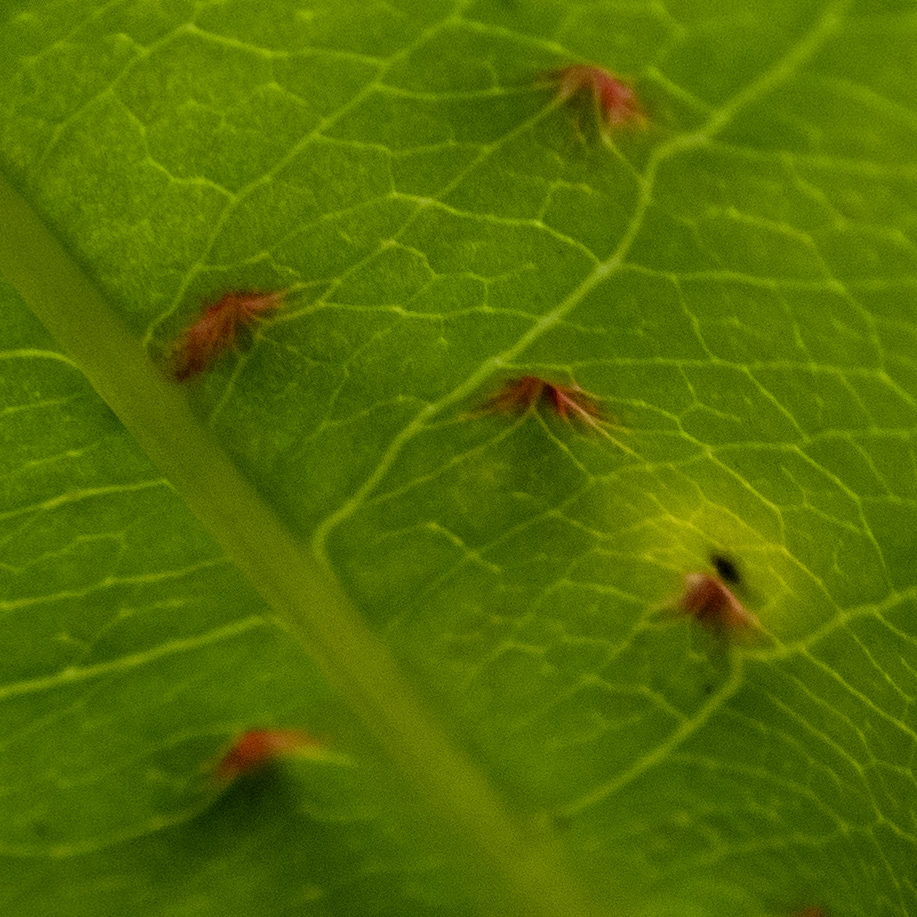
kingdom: Animalia
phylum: Arthropoda
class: Arachnida
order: Trombidiformes
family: Eriophyidae
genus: Eriophyes
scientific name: Eriophyes
